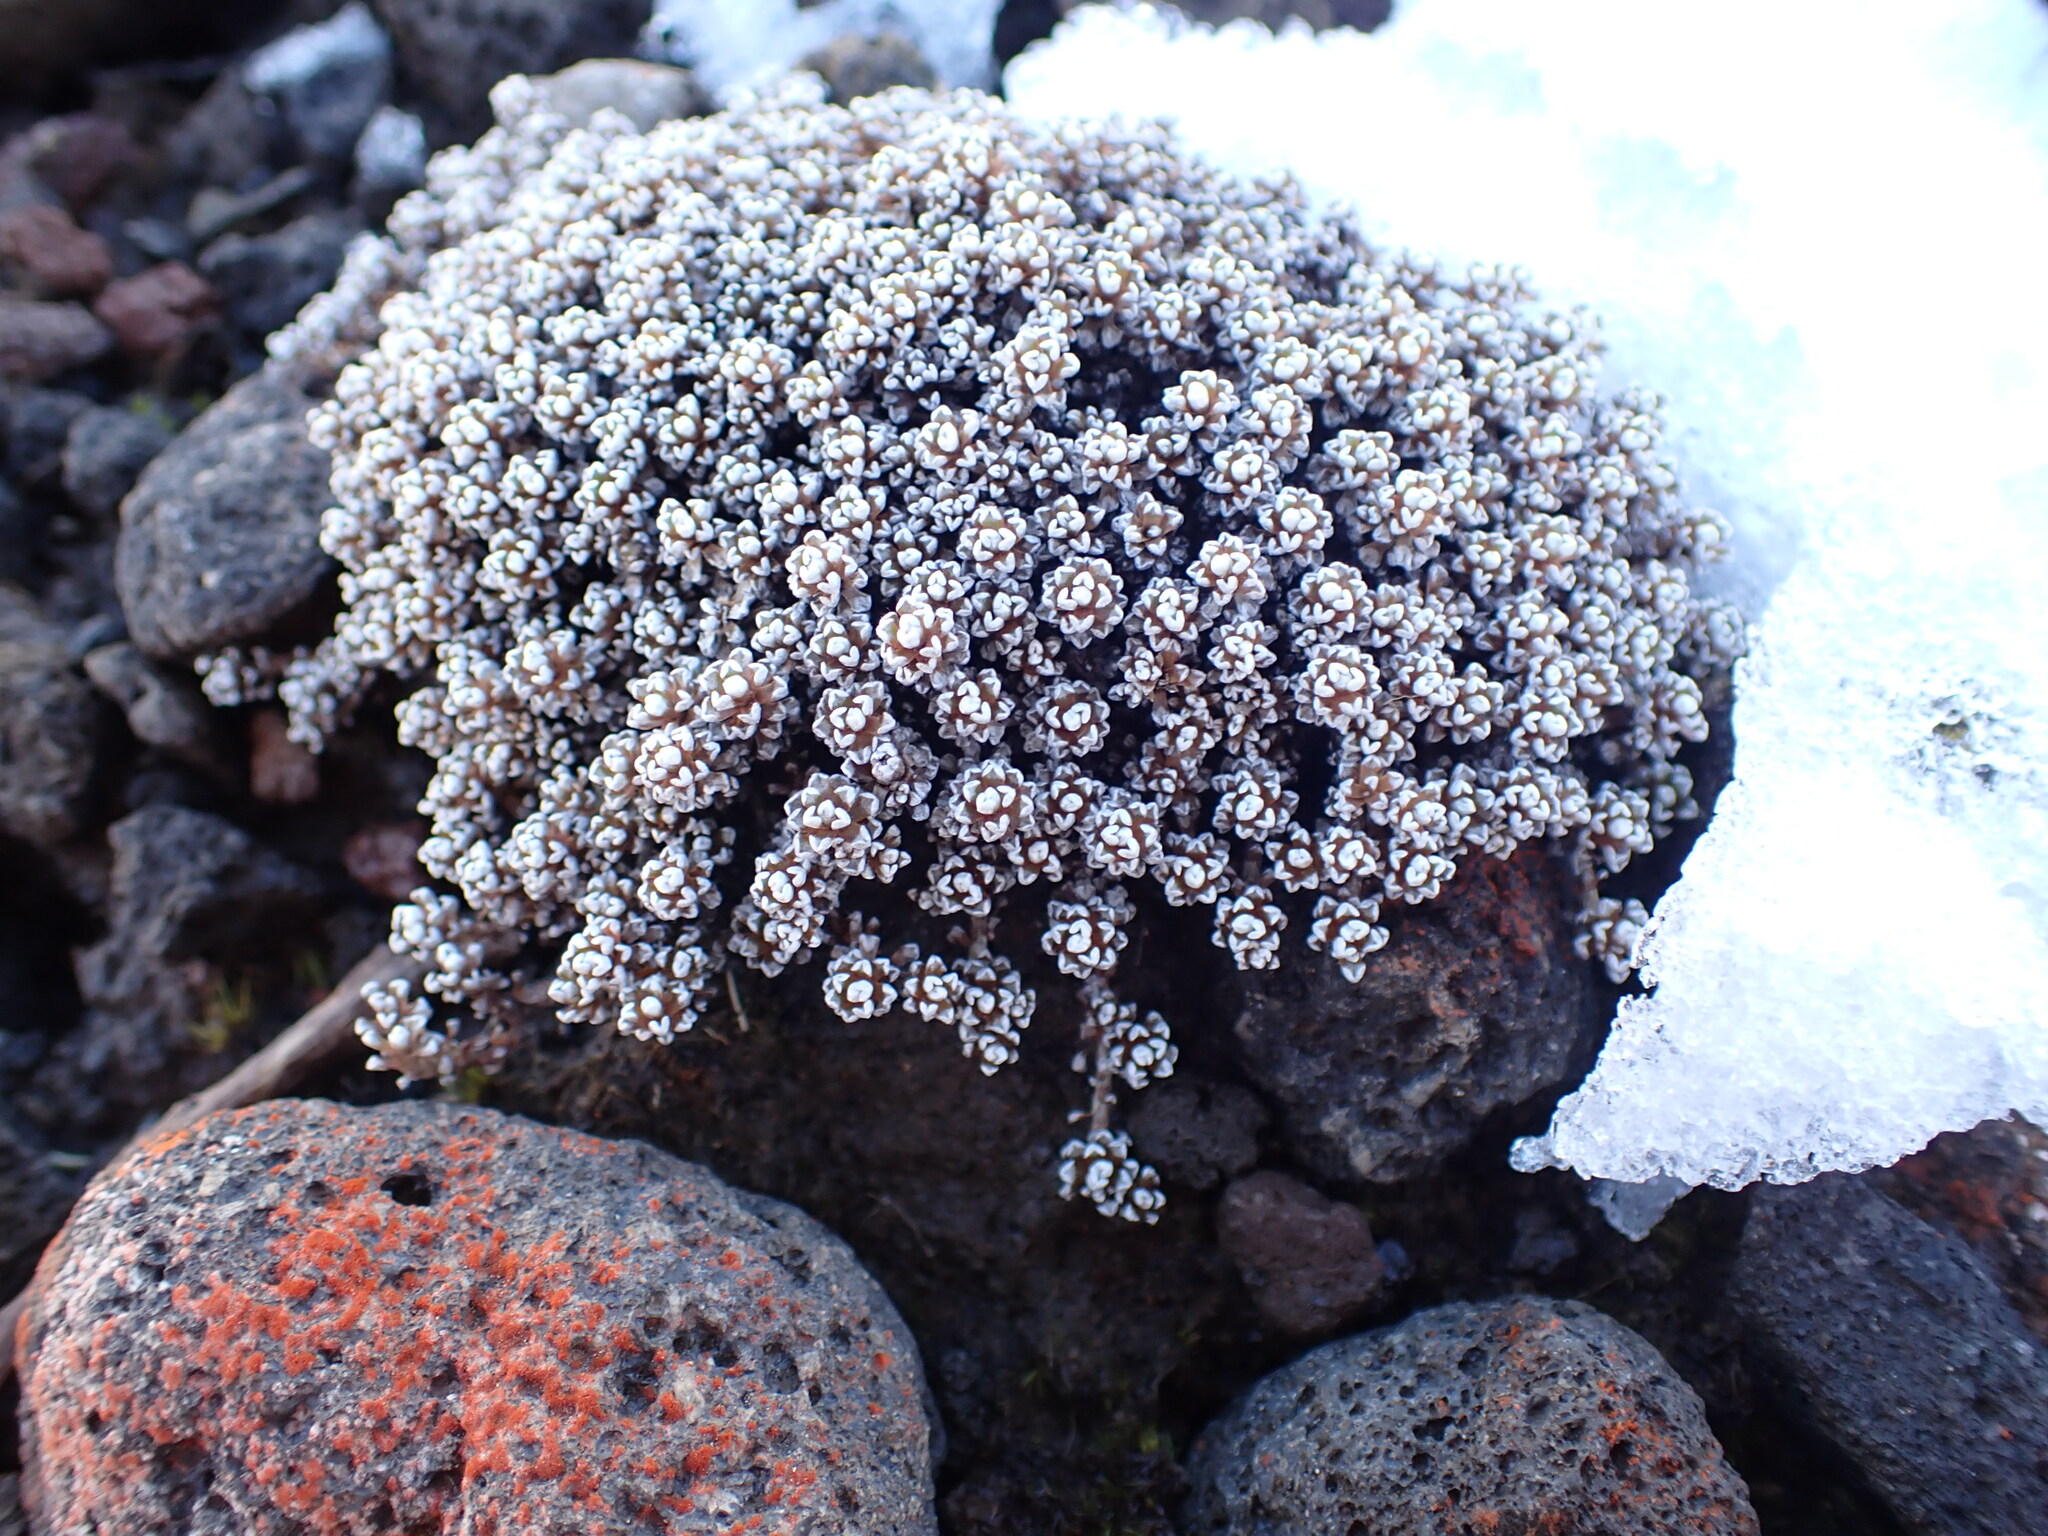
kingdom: Plantae
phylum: Tracheophyta
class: Magnoliopsida
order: Asterales
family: Asteraceae
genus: Raoulia
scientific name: Raoulia albosericea
